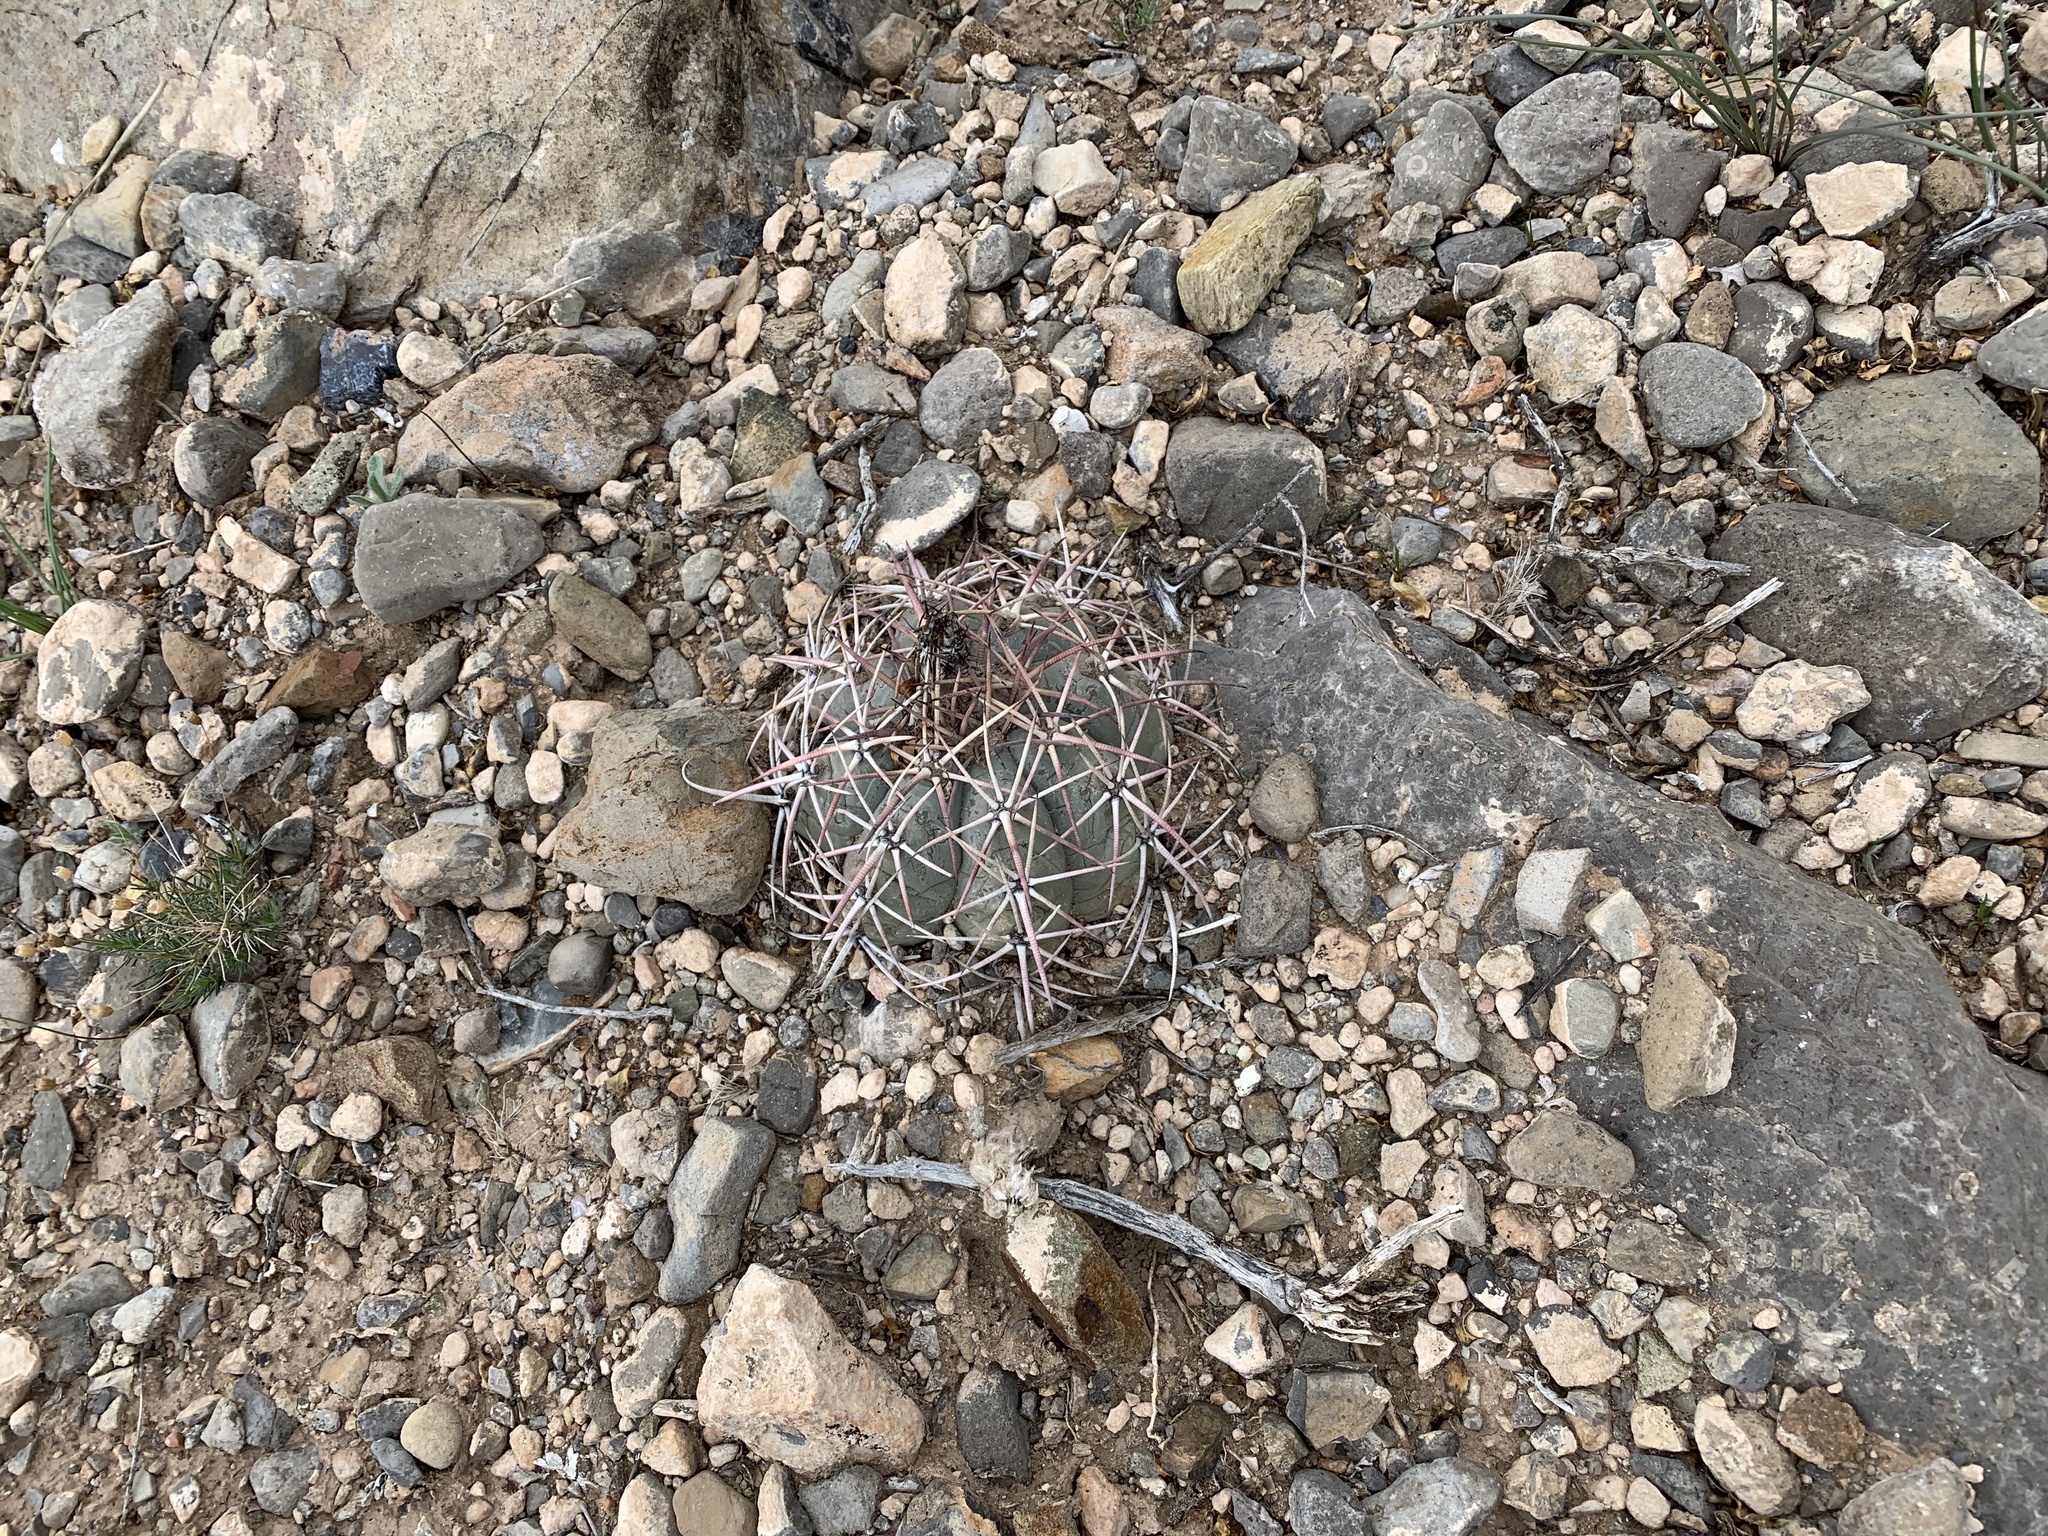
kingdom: Plantae
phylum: Tracheophyta
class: Magnoliopsida
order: Caryophyllales
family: Cactaceae
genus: Echinocactus
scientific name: Echinocactus horizonthalonius
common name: Devilshead
